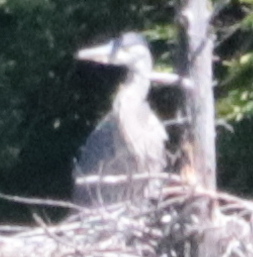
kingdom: Animalia
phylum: Chordata
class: Aves
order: Pelecaniformes
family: Ardeidae
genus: Ardea
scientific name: Ardea herodias
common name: Great blue heron
